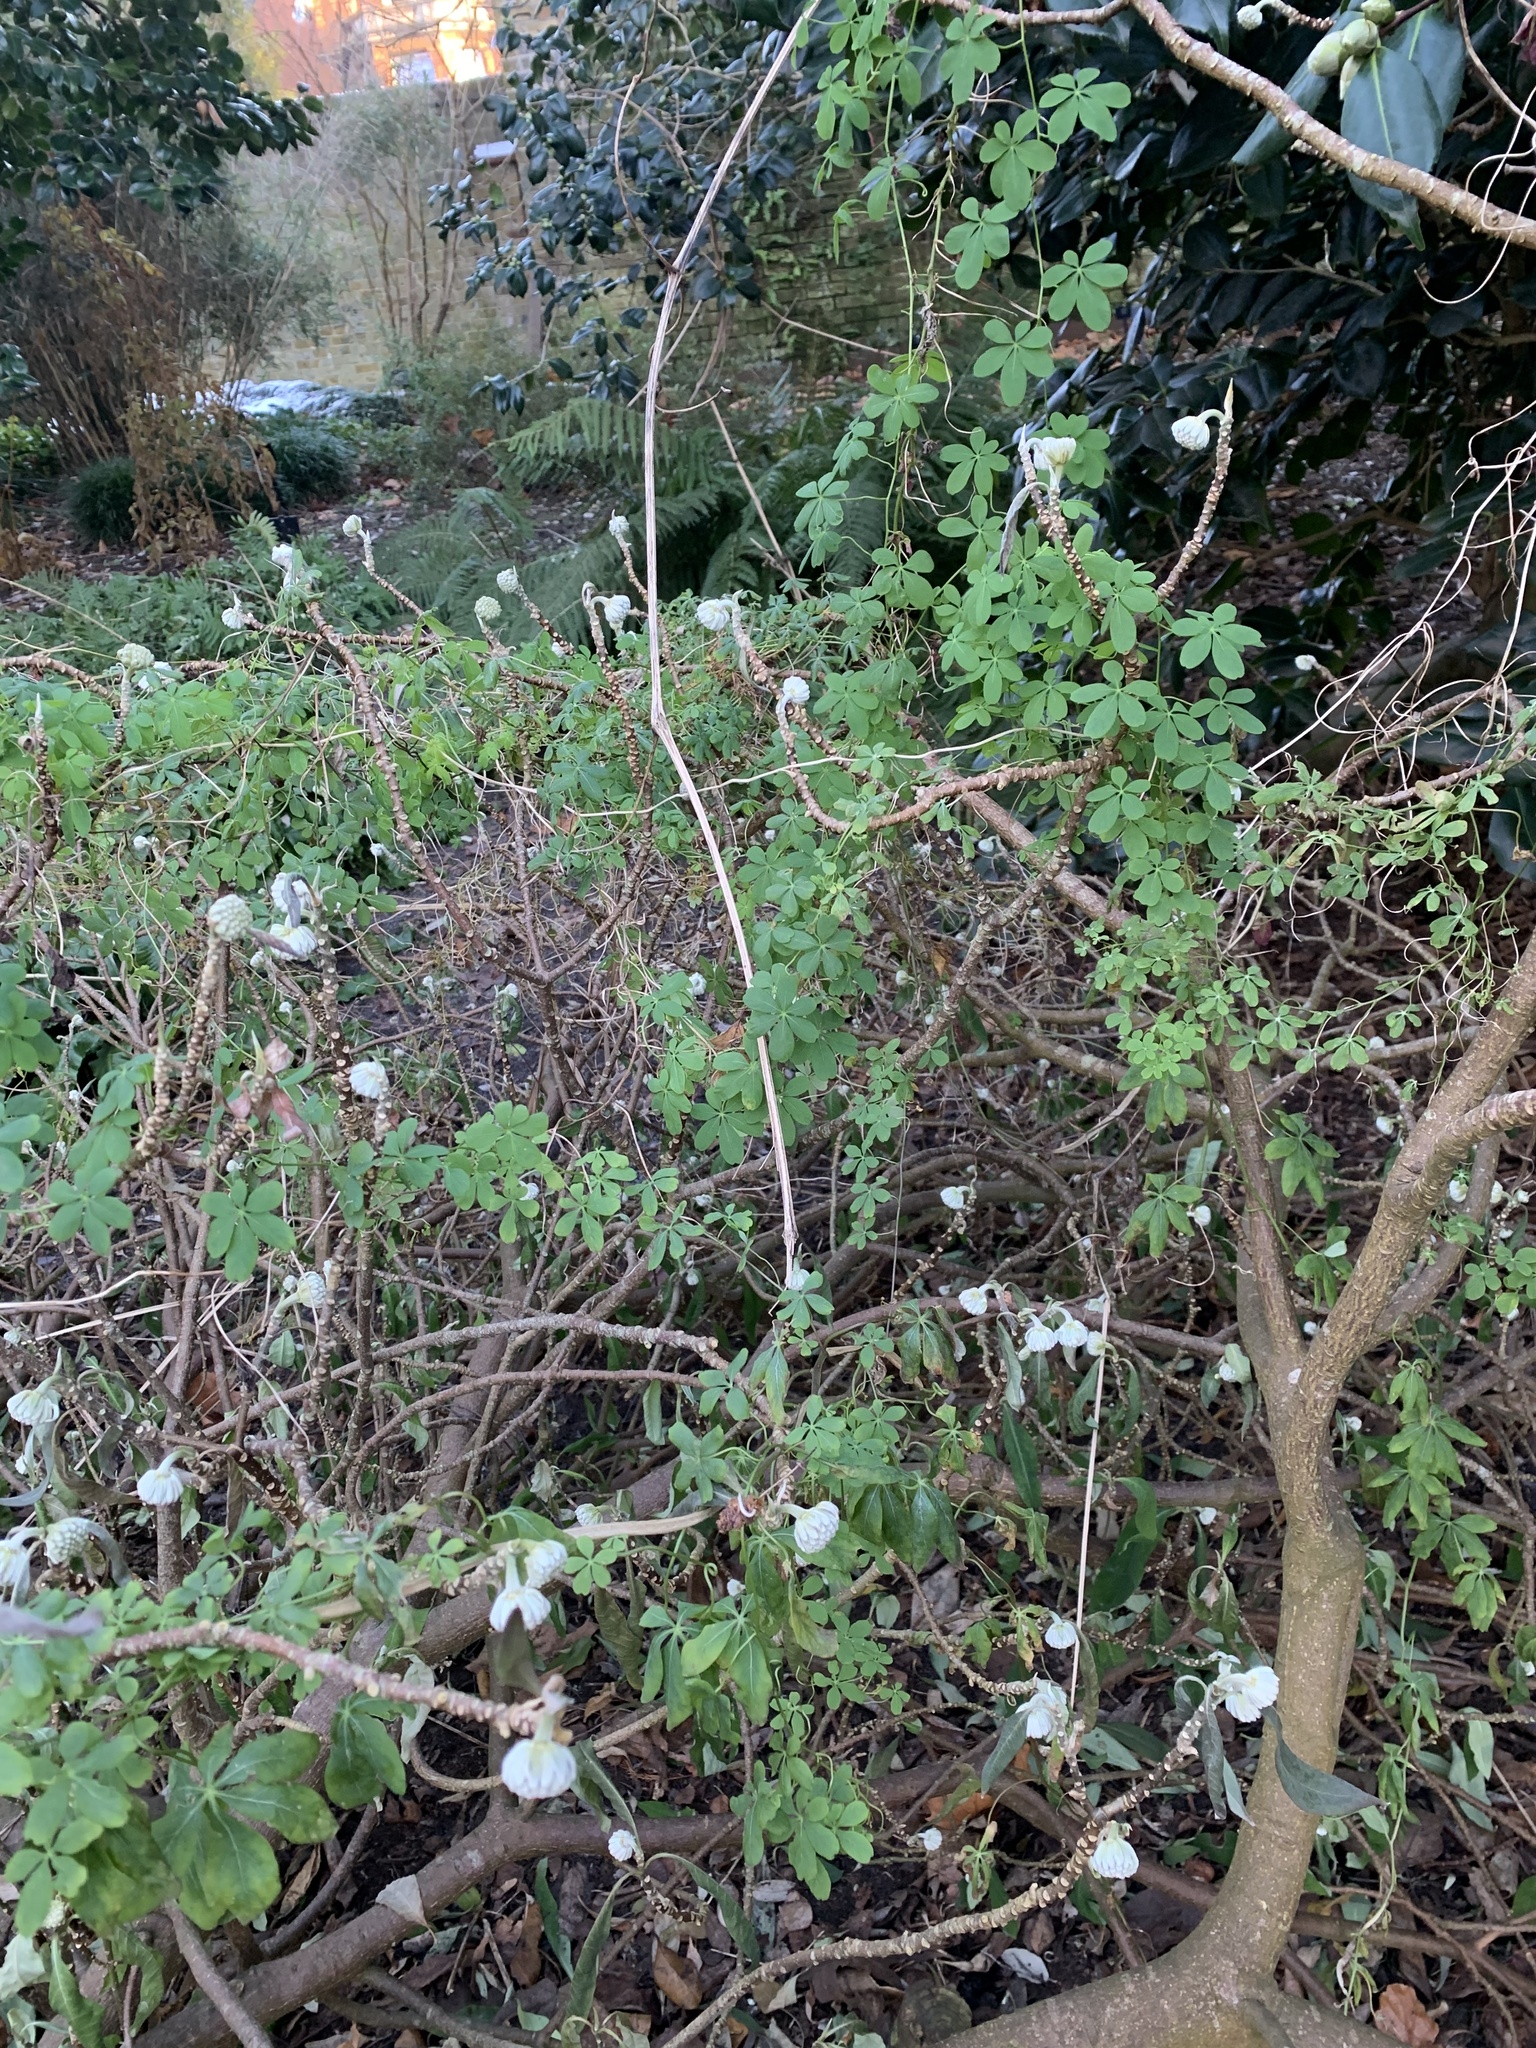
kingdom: Plantae
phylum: Tracheophyta
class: Magnoliopsida
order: Brassicales
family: Tropaeolaceae
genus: Tropaeolum
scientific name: Tropaeolum speciosum
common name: Flame nasturtium
